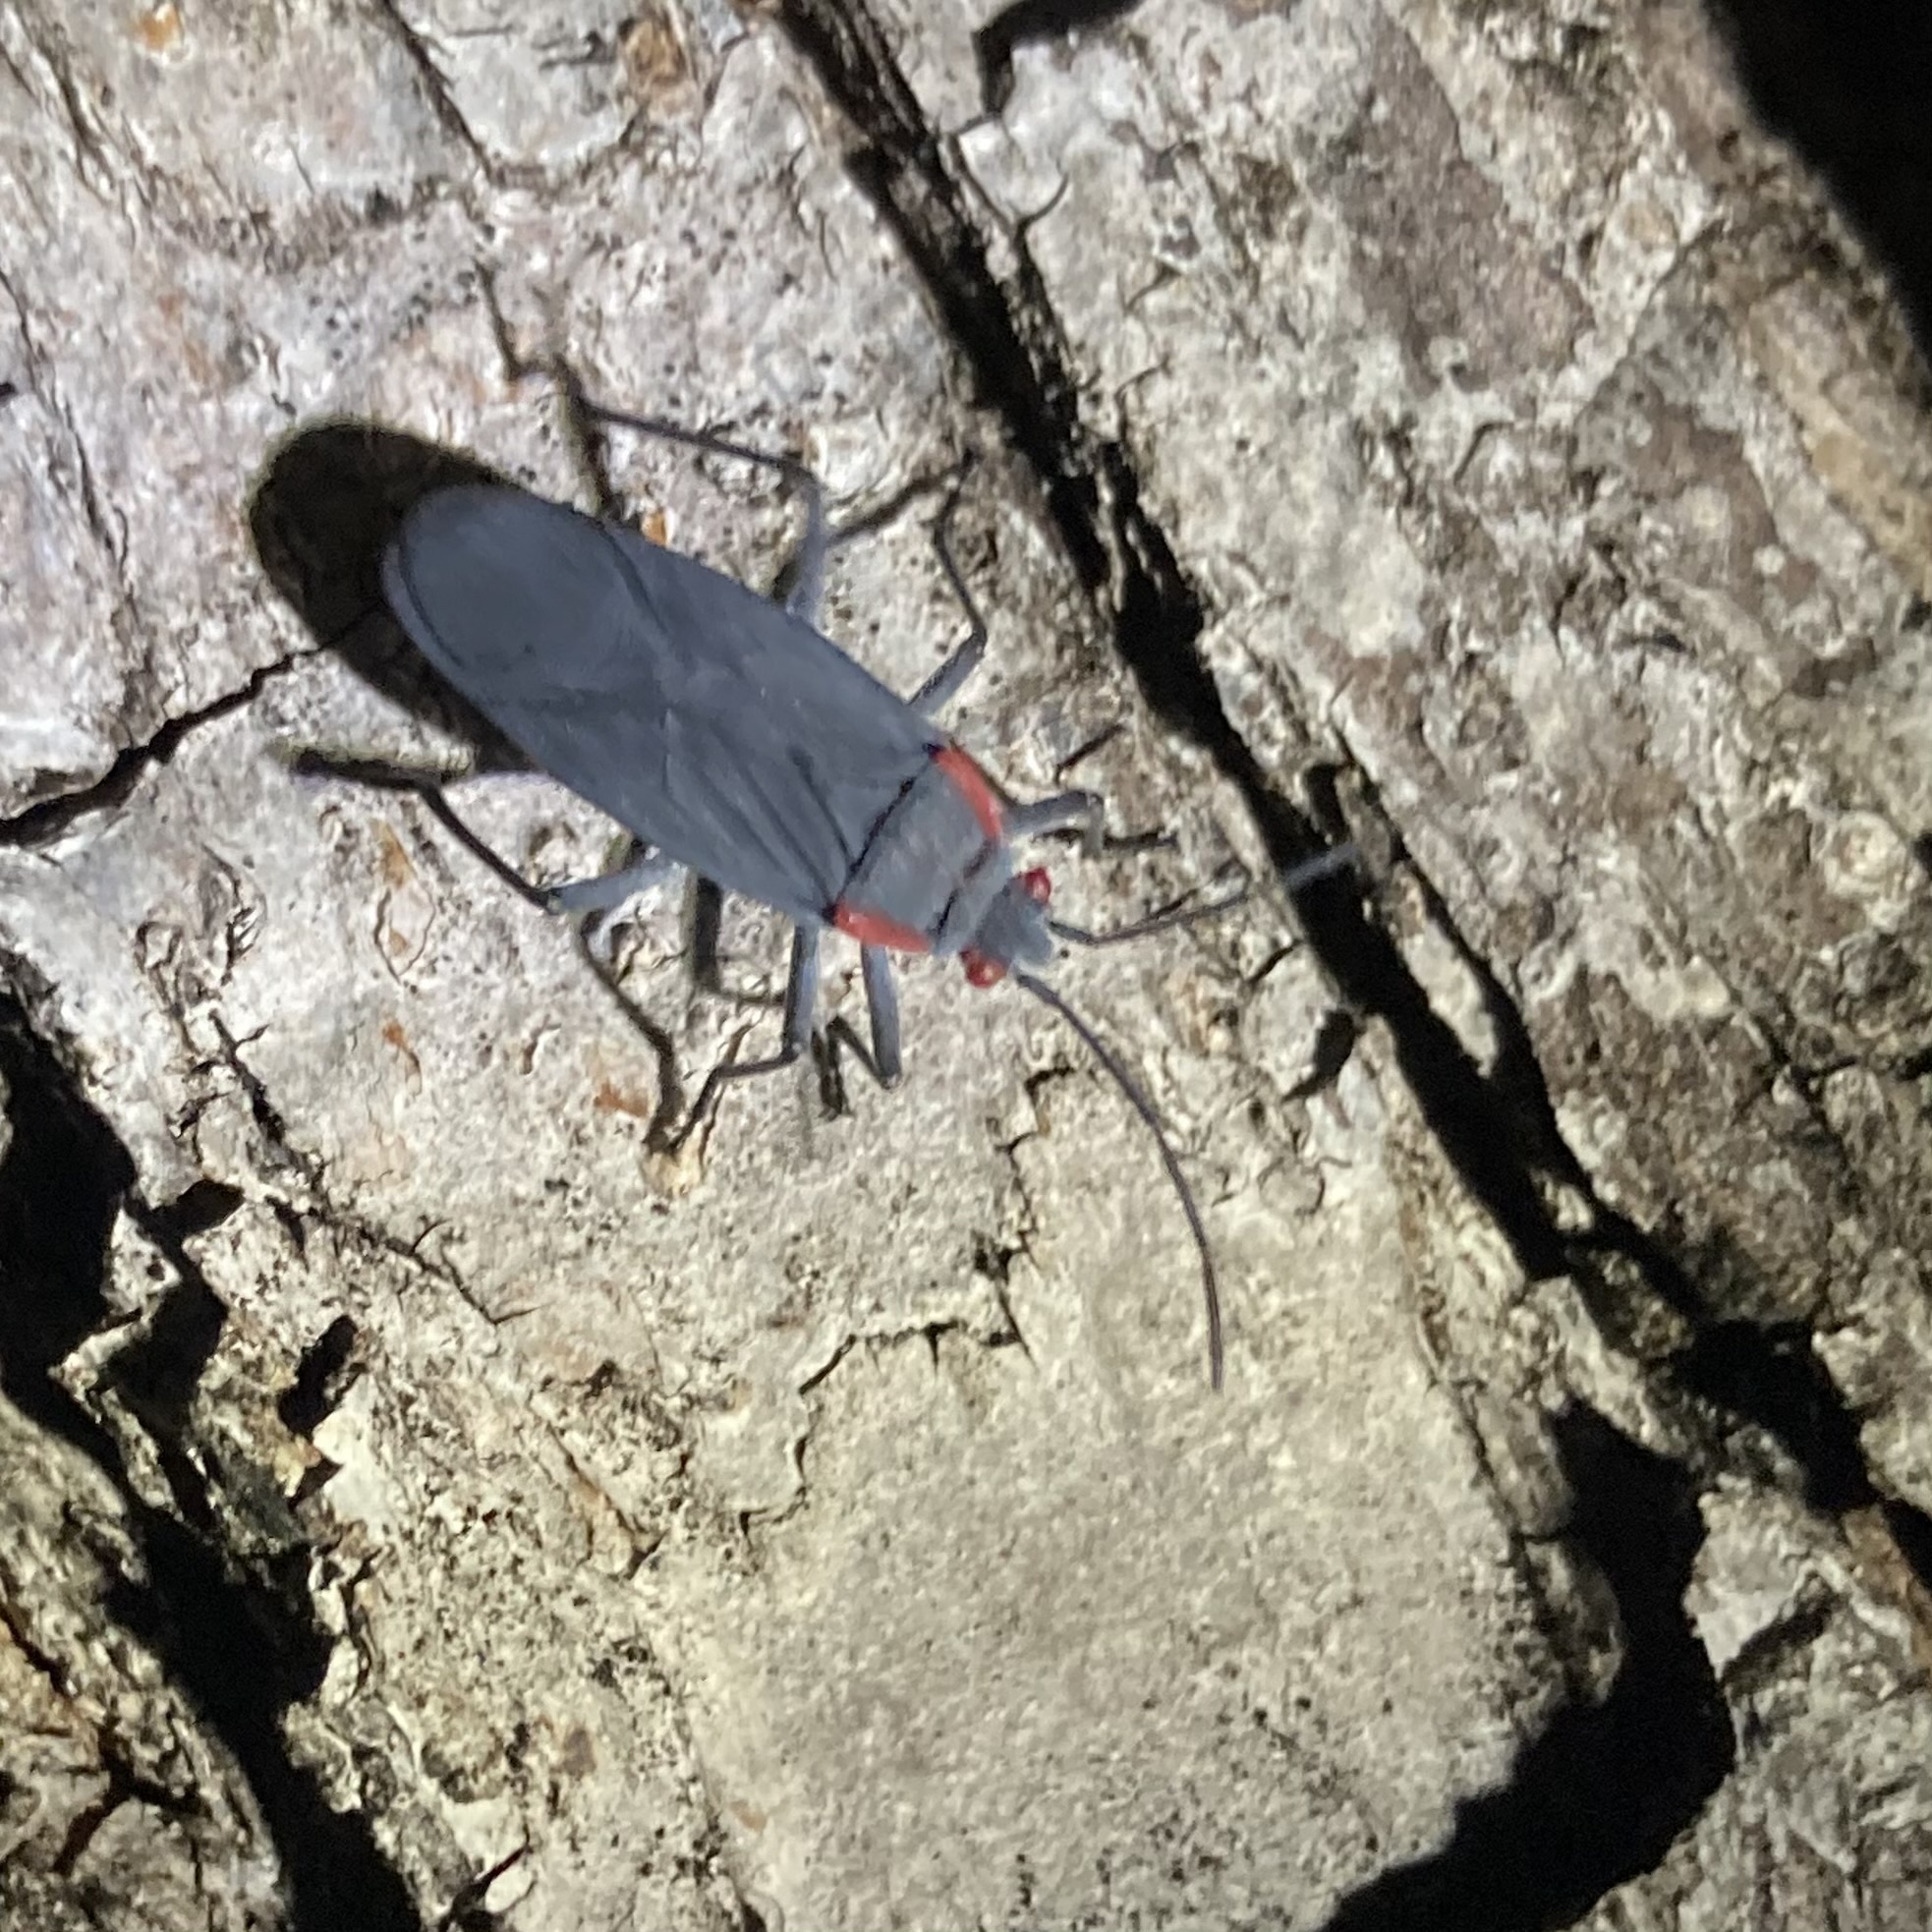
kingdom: Animalia
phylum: Arthropoda
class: Insecta
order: Hemiptera
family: Rhopalidae
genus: Jadera
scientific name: Jadera haematoloma
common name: Red-shouldered bug
